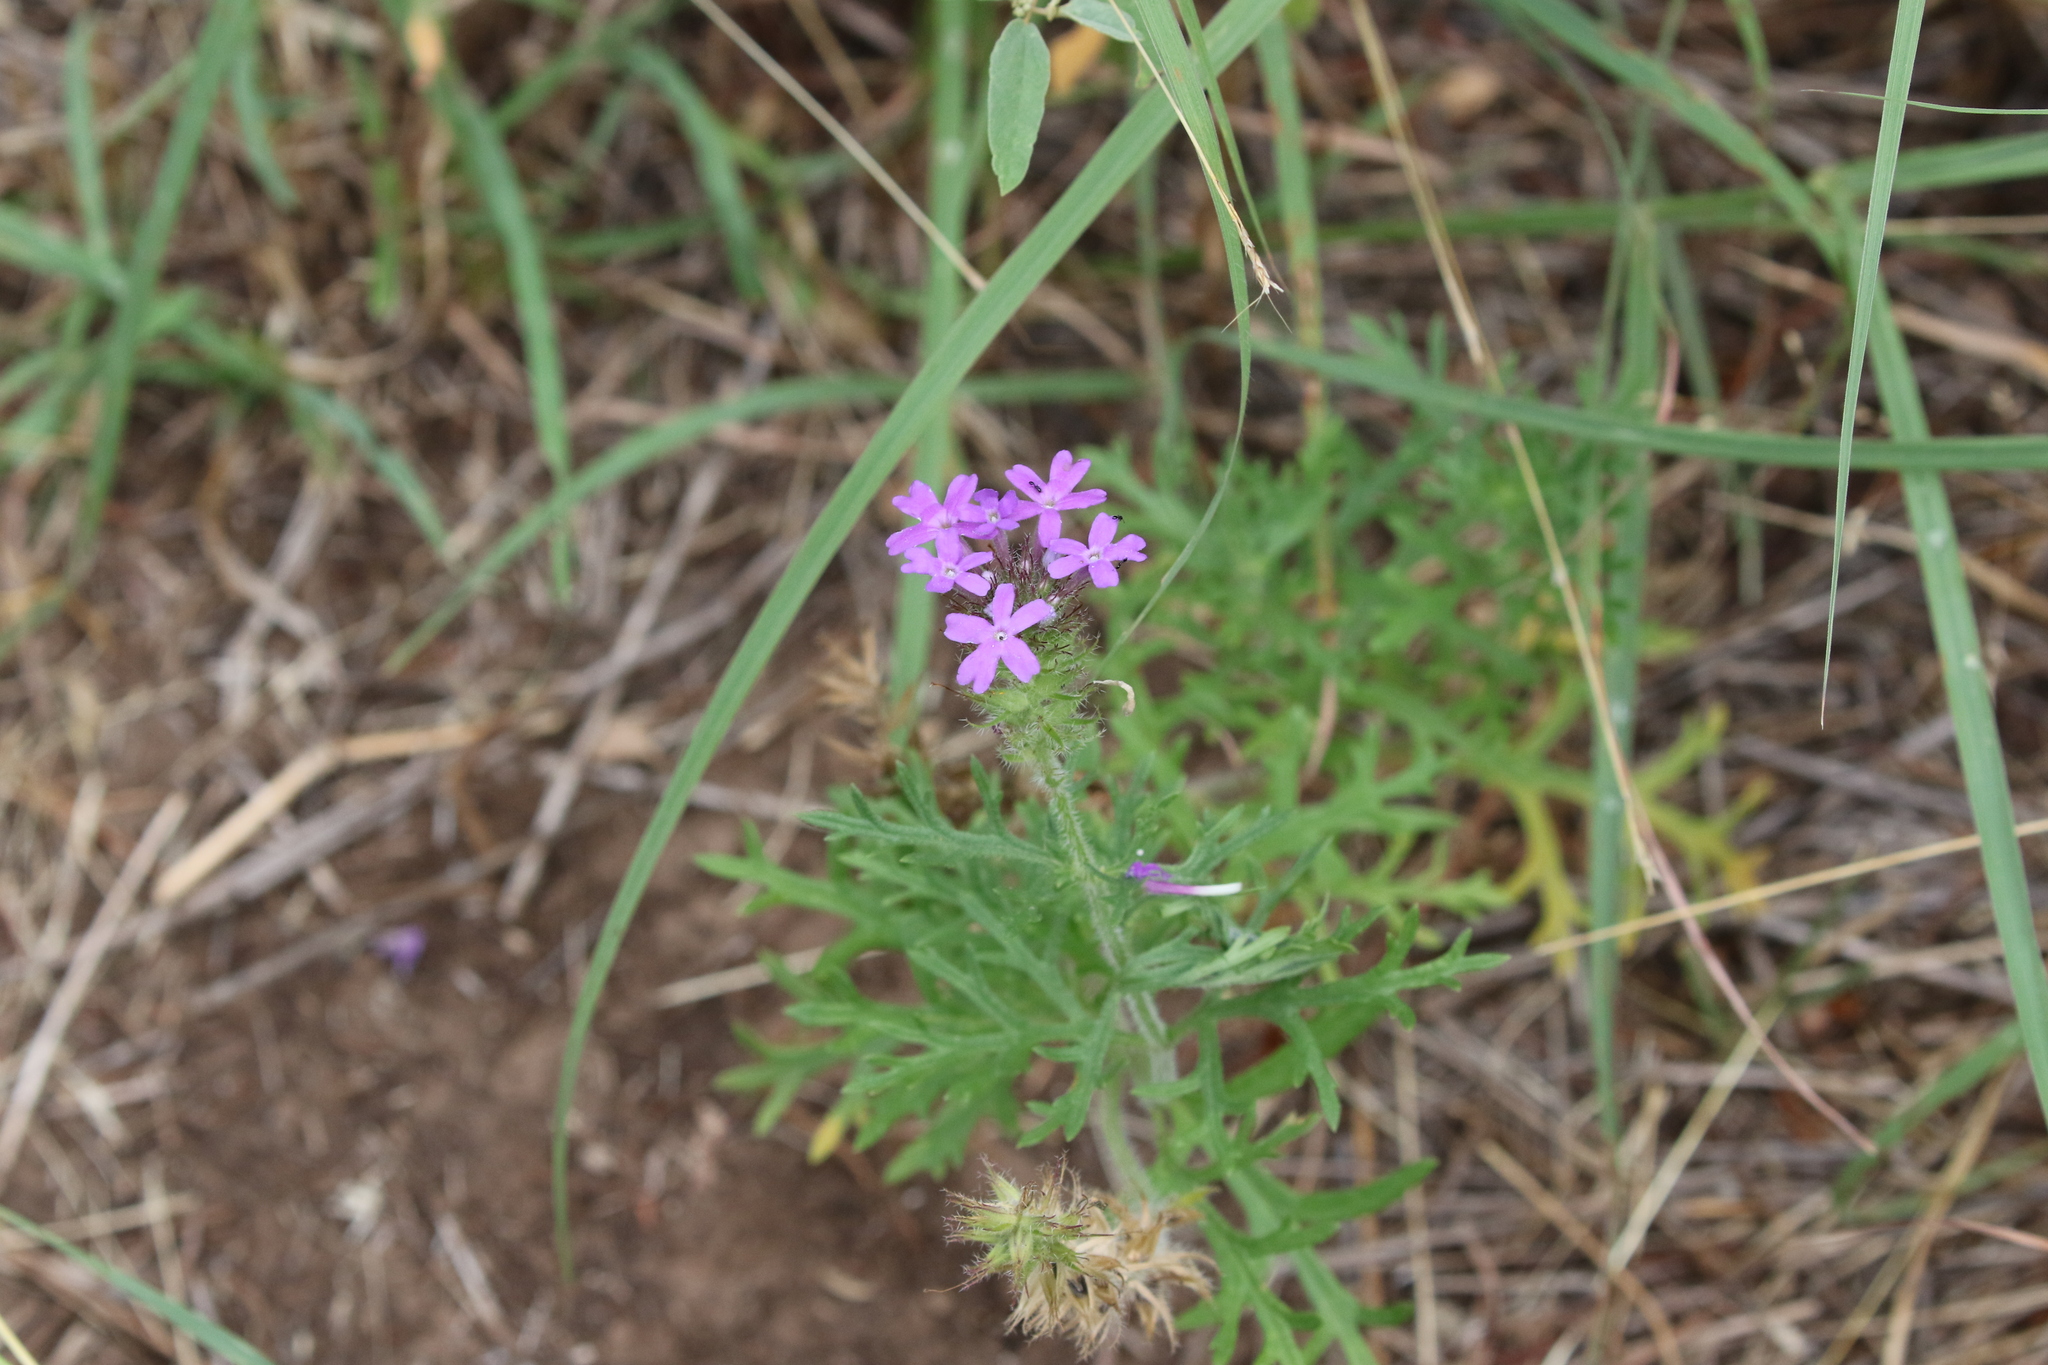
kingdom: Plantae
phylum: Tracheophyta
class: Magnoliopsida
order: Lamiales
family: Verbenaceae
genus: Verbena
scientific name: Verbena bipinnatifida
